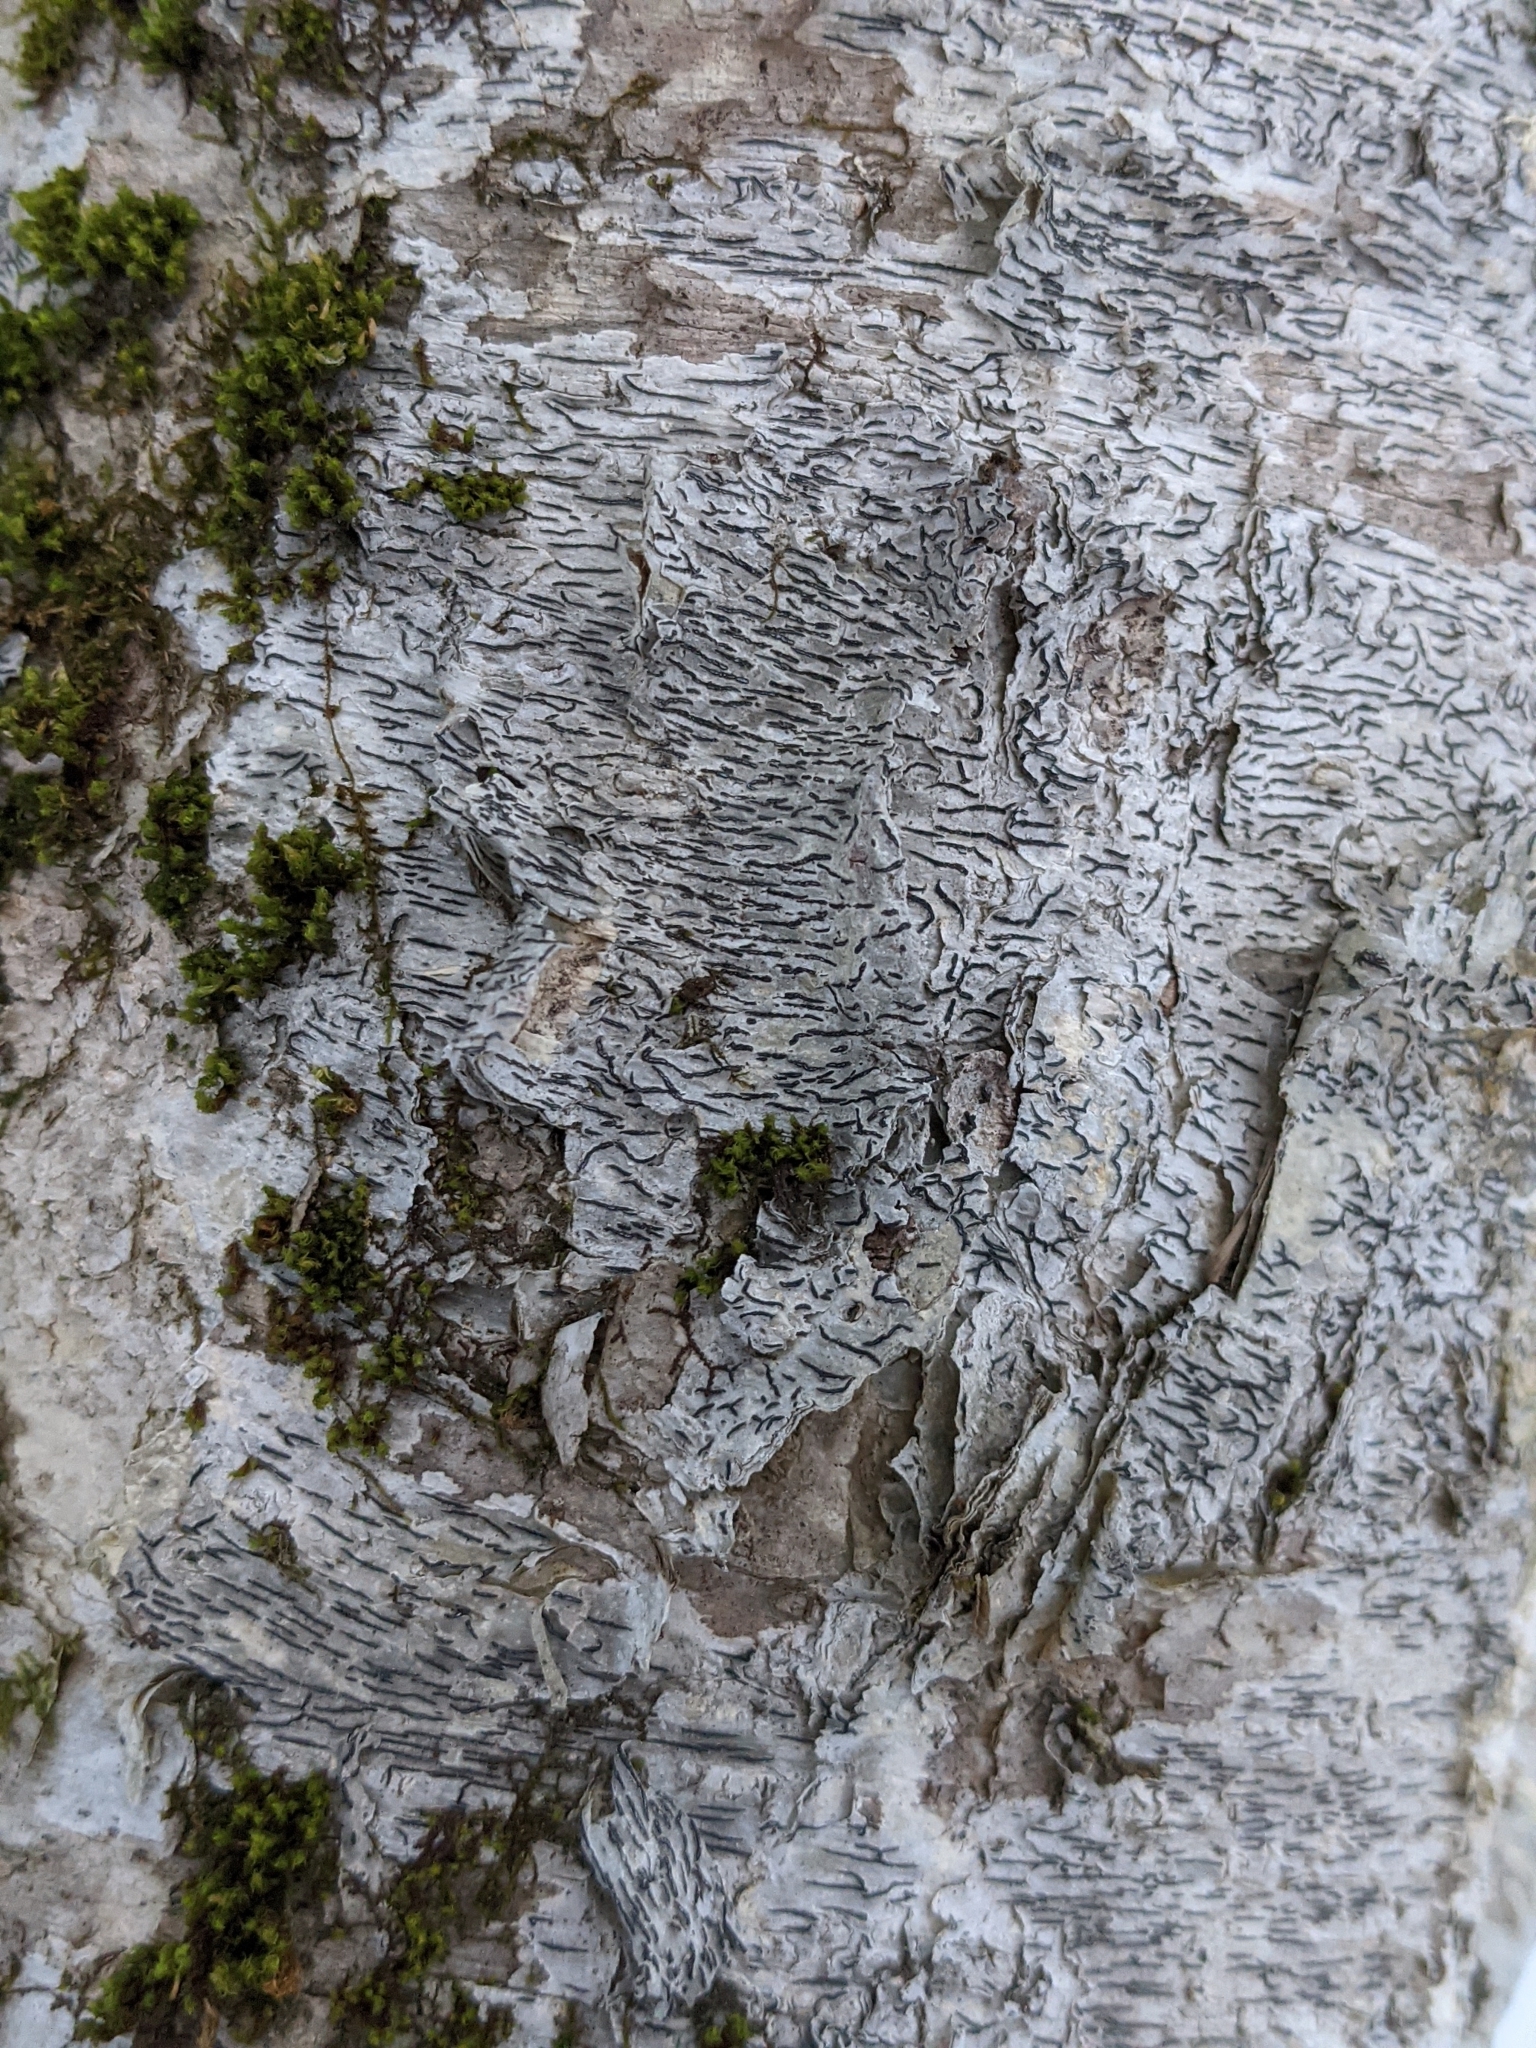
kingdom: Fungi
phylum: Ascomycota
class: Lecanoromycetes
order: Ostropales
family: Graphidaceae
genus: Graphis
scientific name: Graphis scripta
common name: Script lichen
